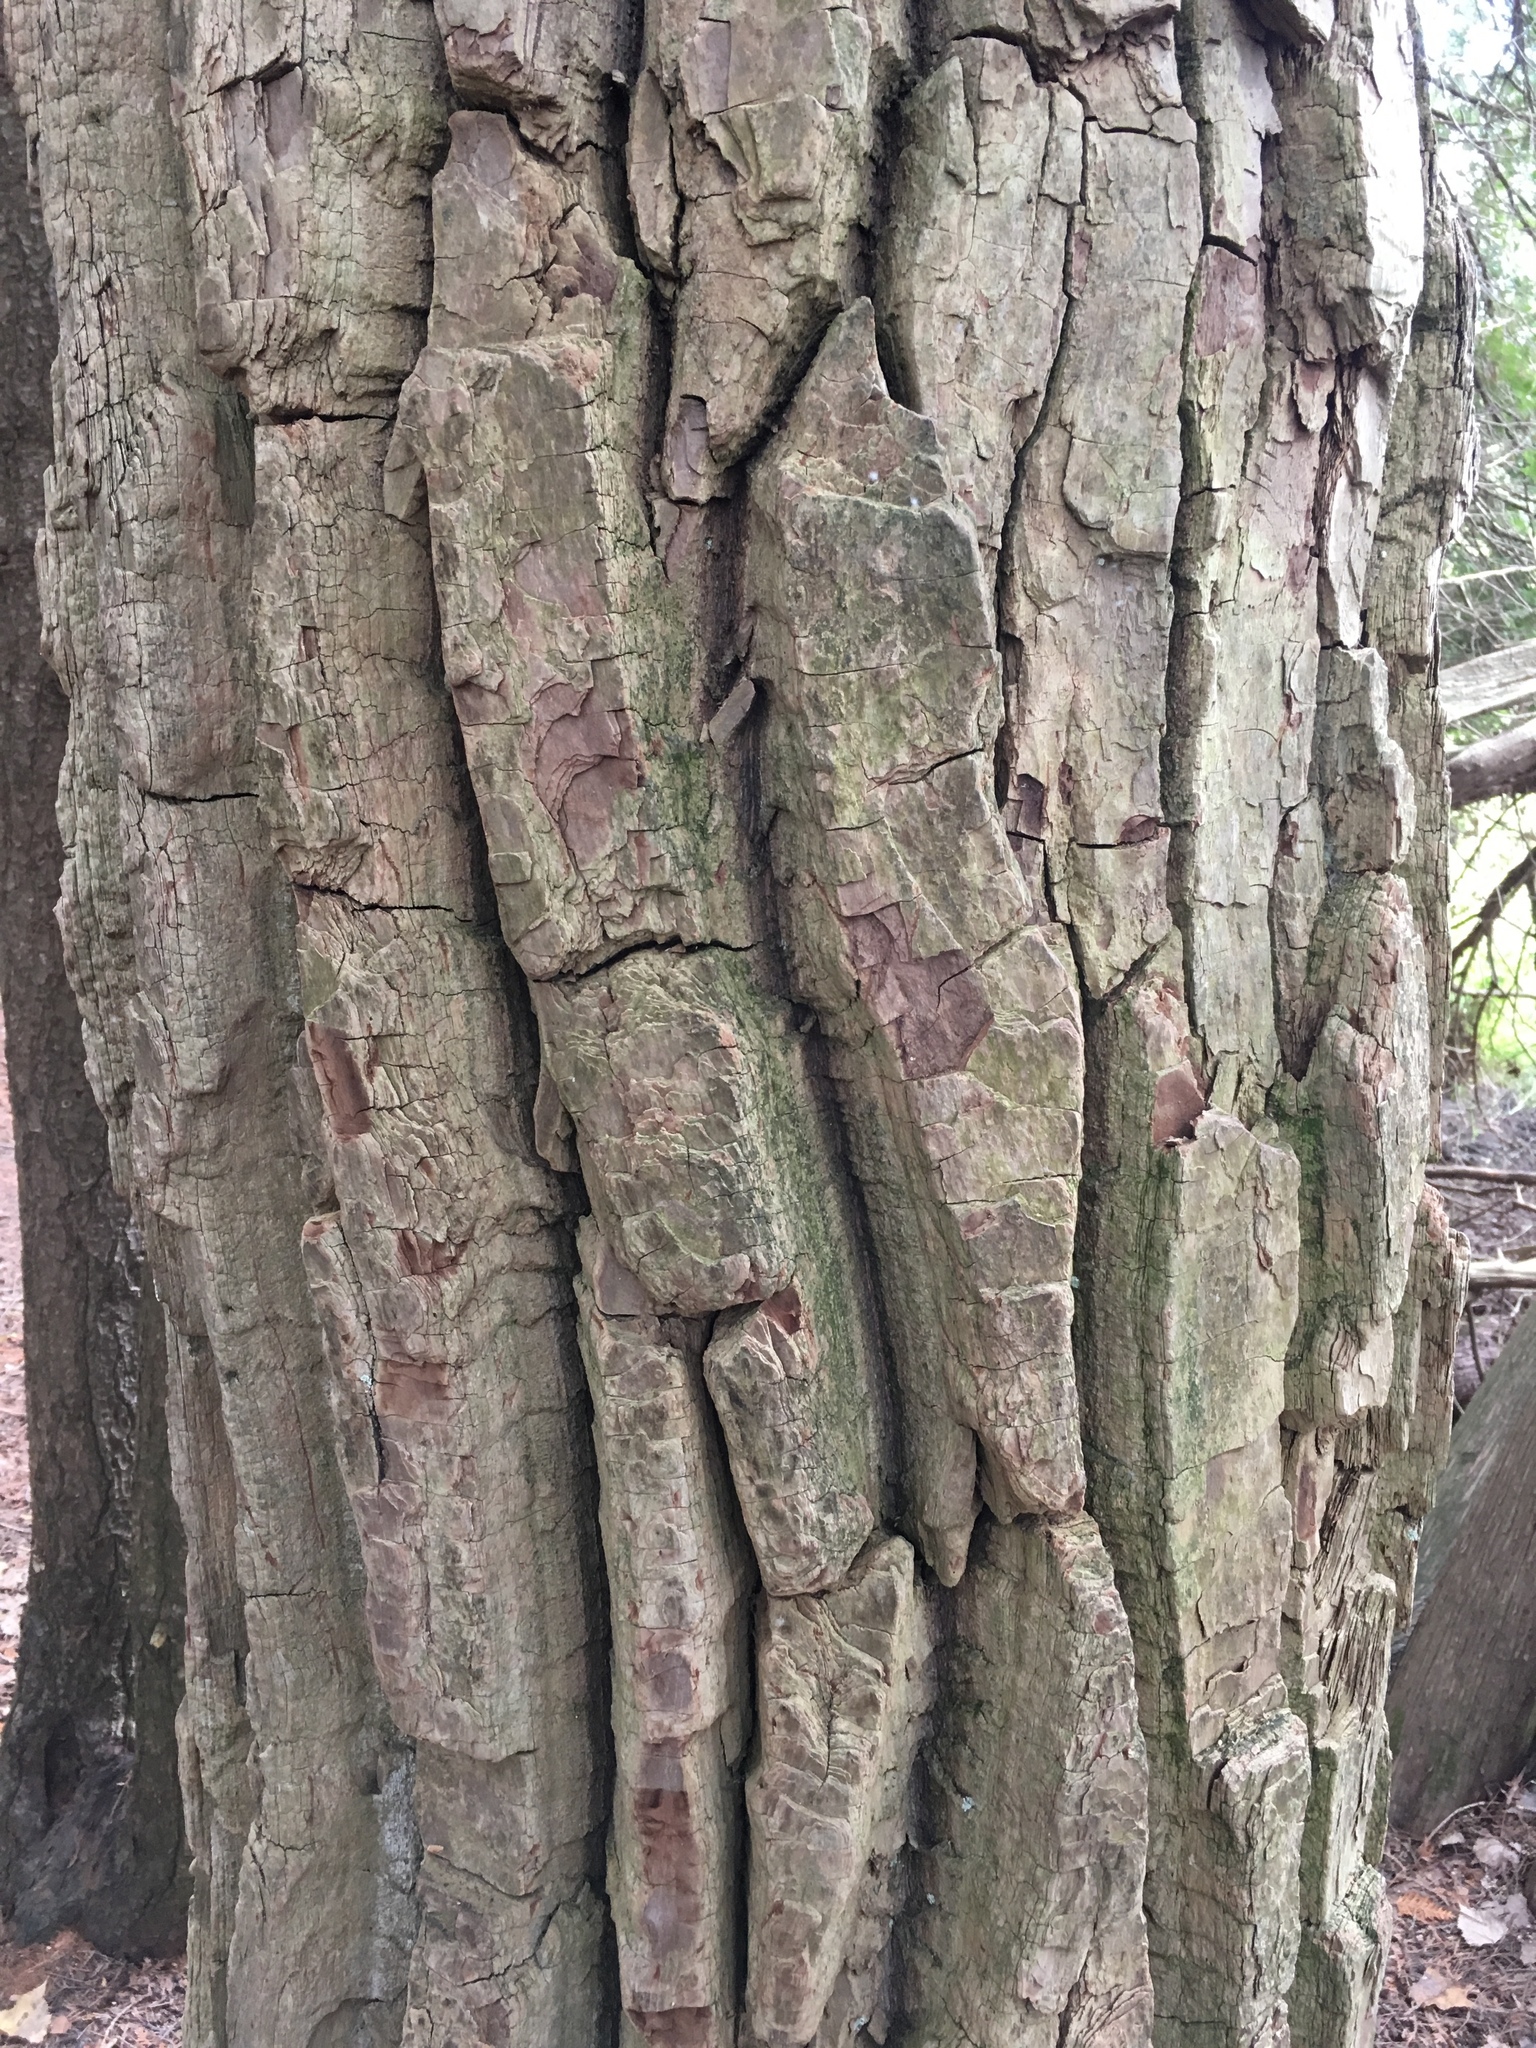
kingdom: Plantae
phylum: Tracheophyta
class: Magnoliopsida
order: Malpighiales
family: Salicaceae
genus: Populus
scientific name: Populus deltoides
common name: Eastern cottonwood
